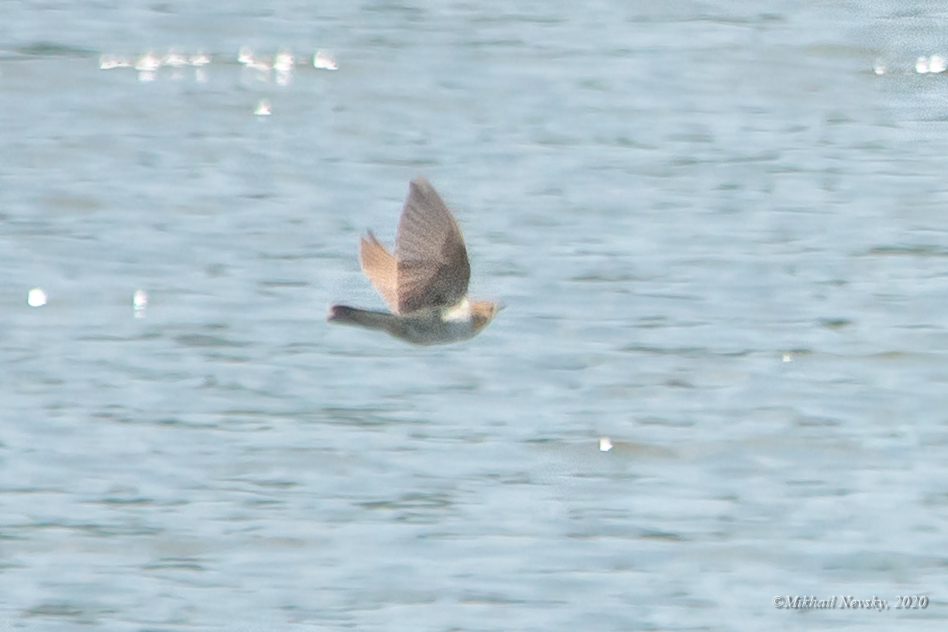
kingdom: Animalia
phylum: Chordata
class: Aves
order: Passeriformes
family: Muscicapidae
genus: Luscinia
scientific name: Luscinia megarhynchos
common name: Common nightingale
